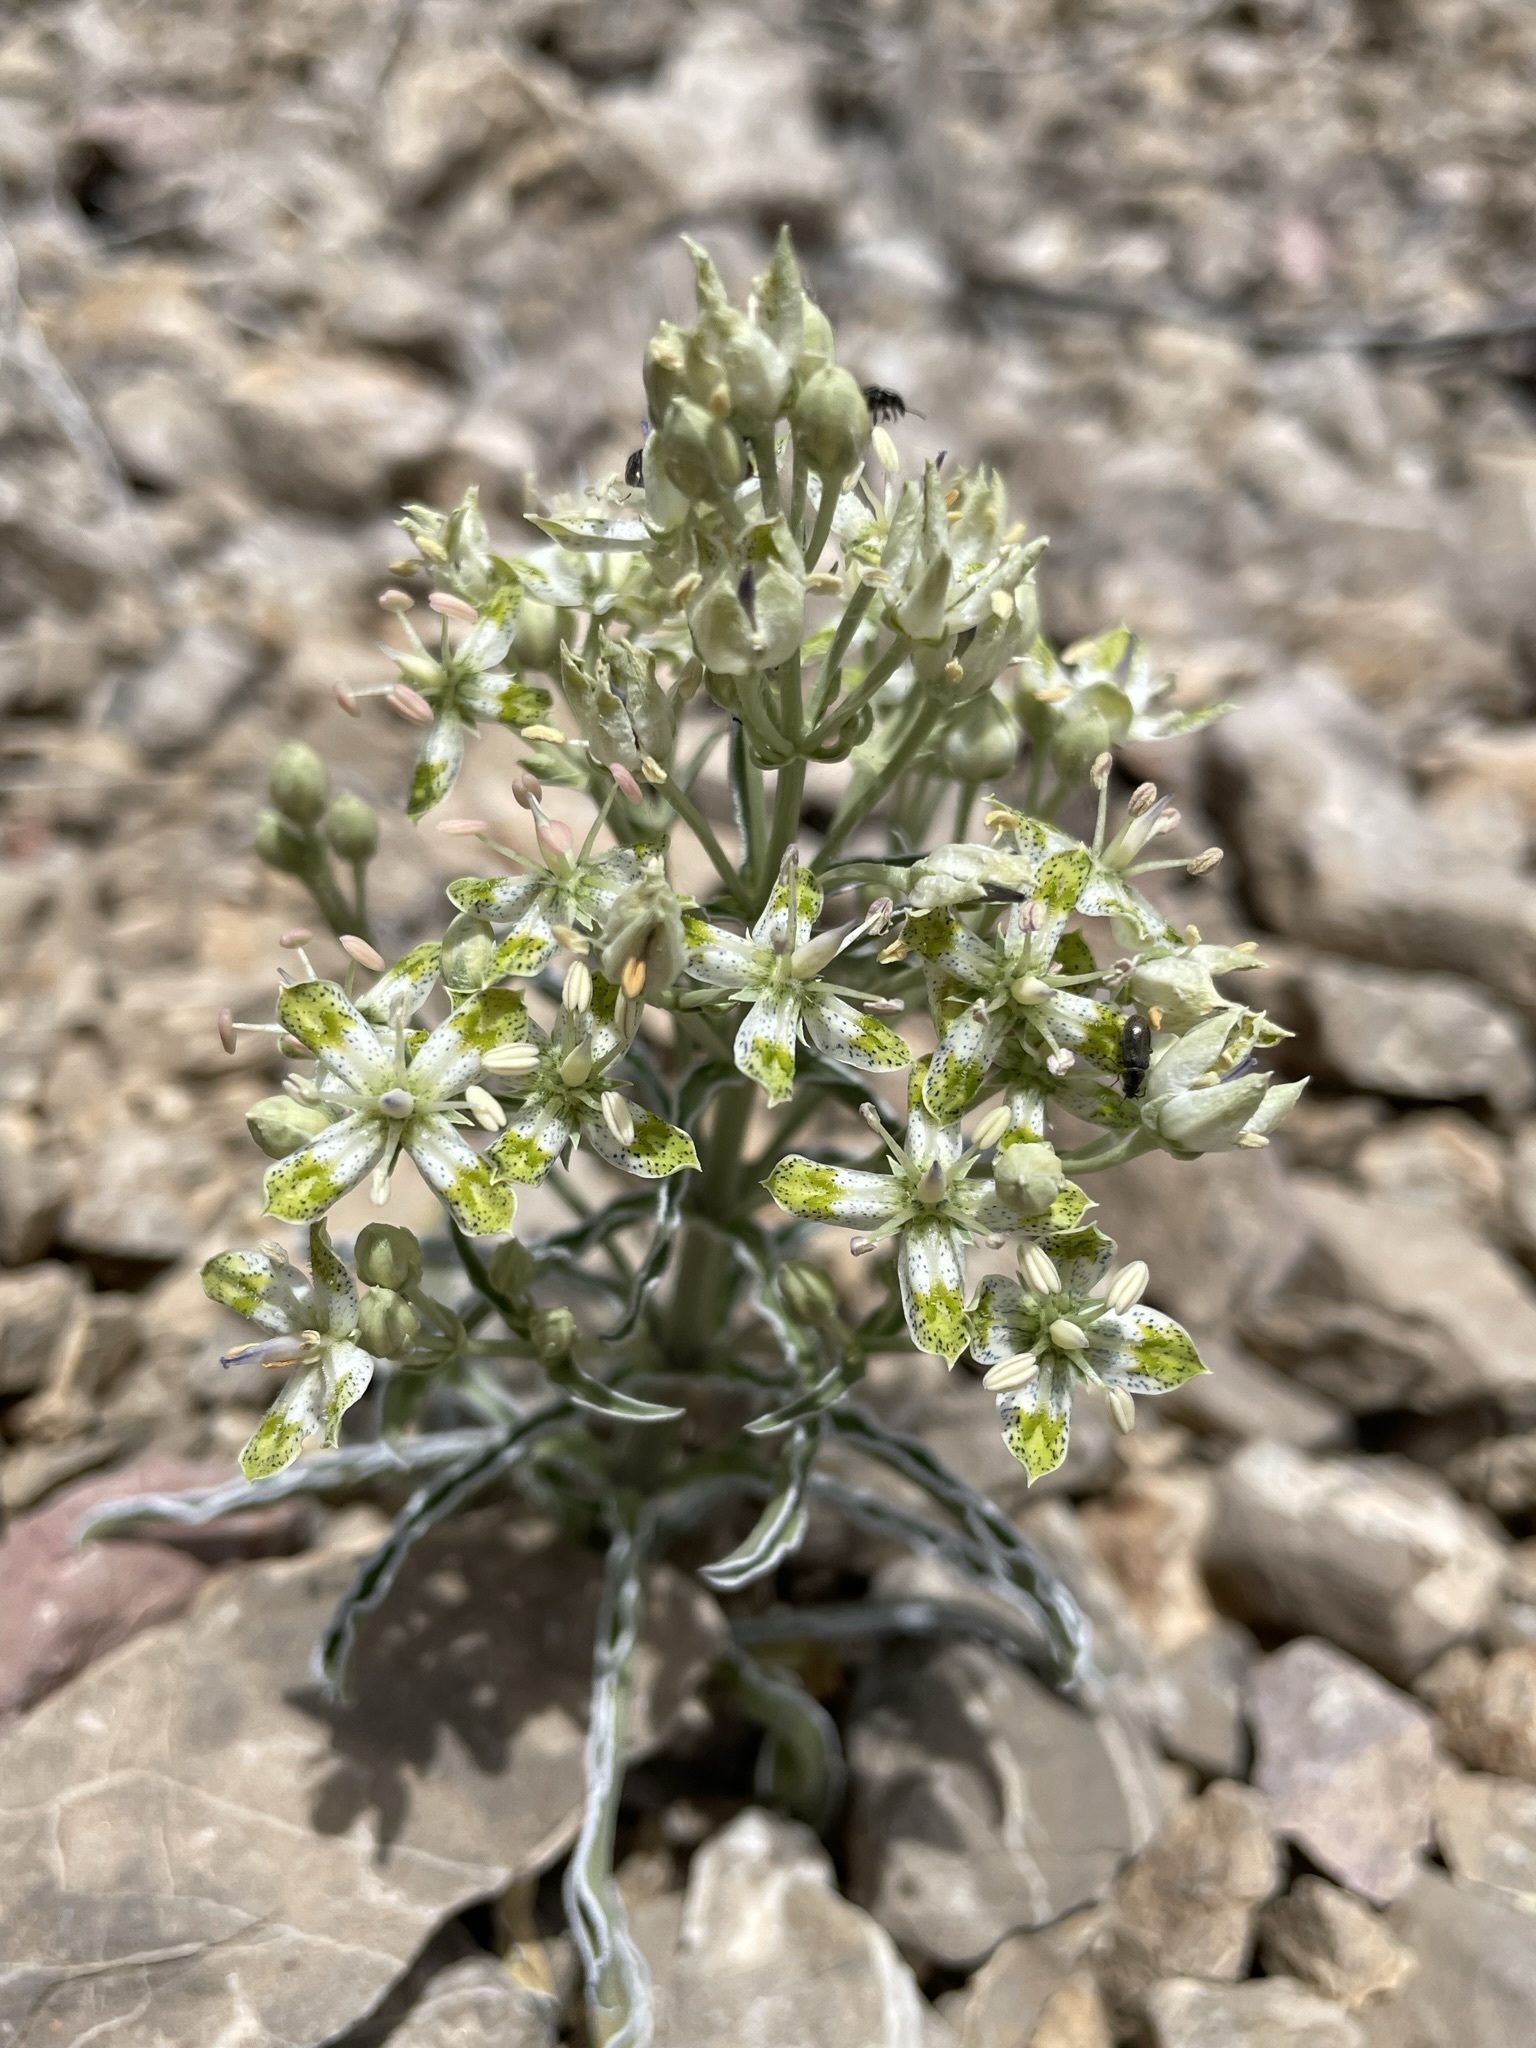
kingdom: Plantae
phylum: Tracheophyta
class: Magnoliopsida
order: Gentianales
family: Gentianaceae
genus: Frasera
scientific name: Frasera albomarginata
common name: Desert frasera
